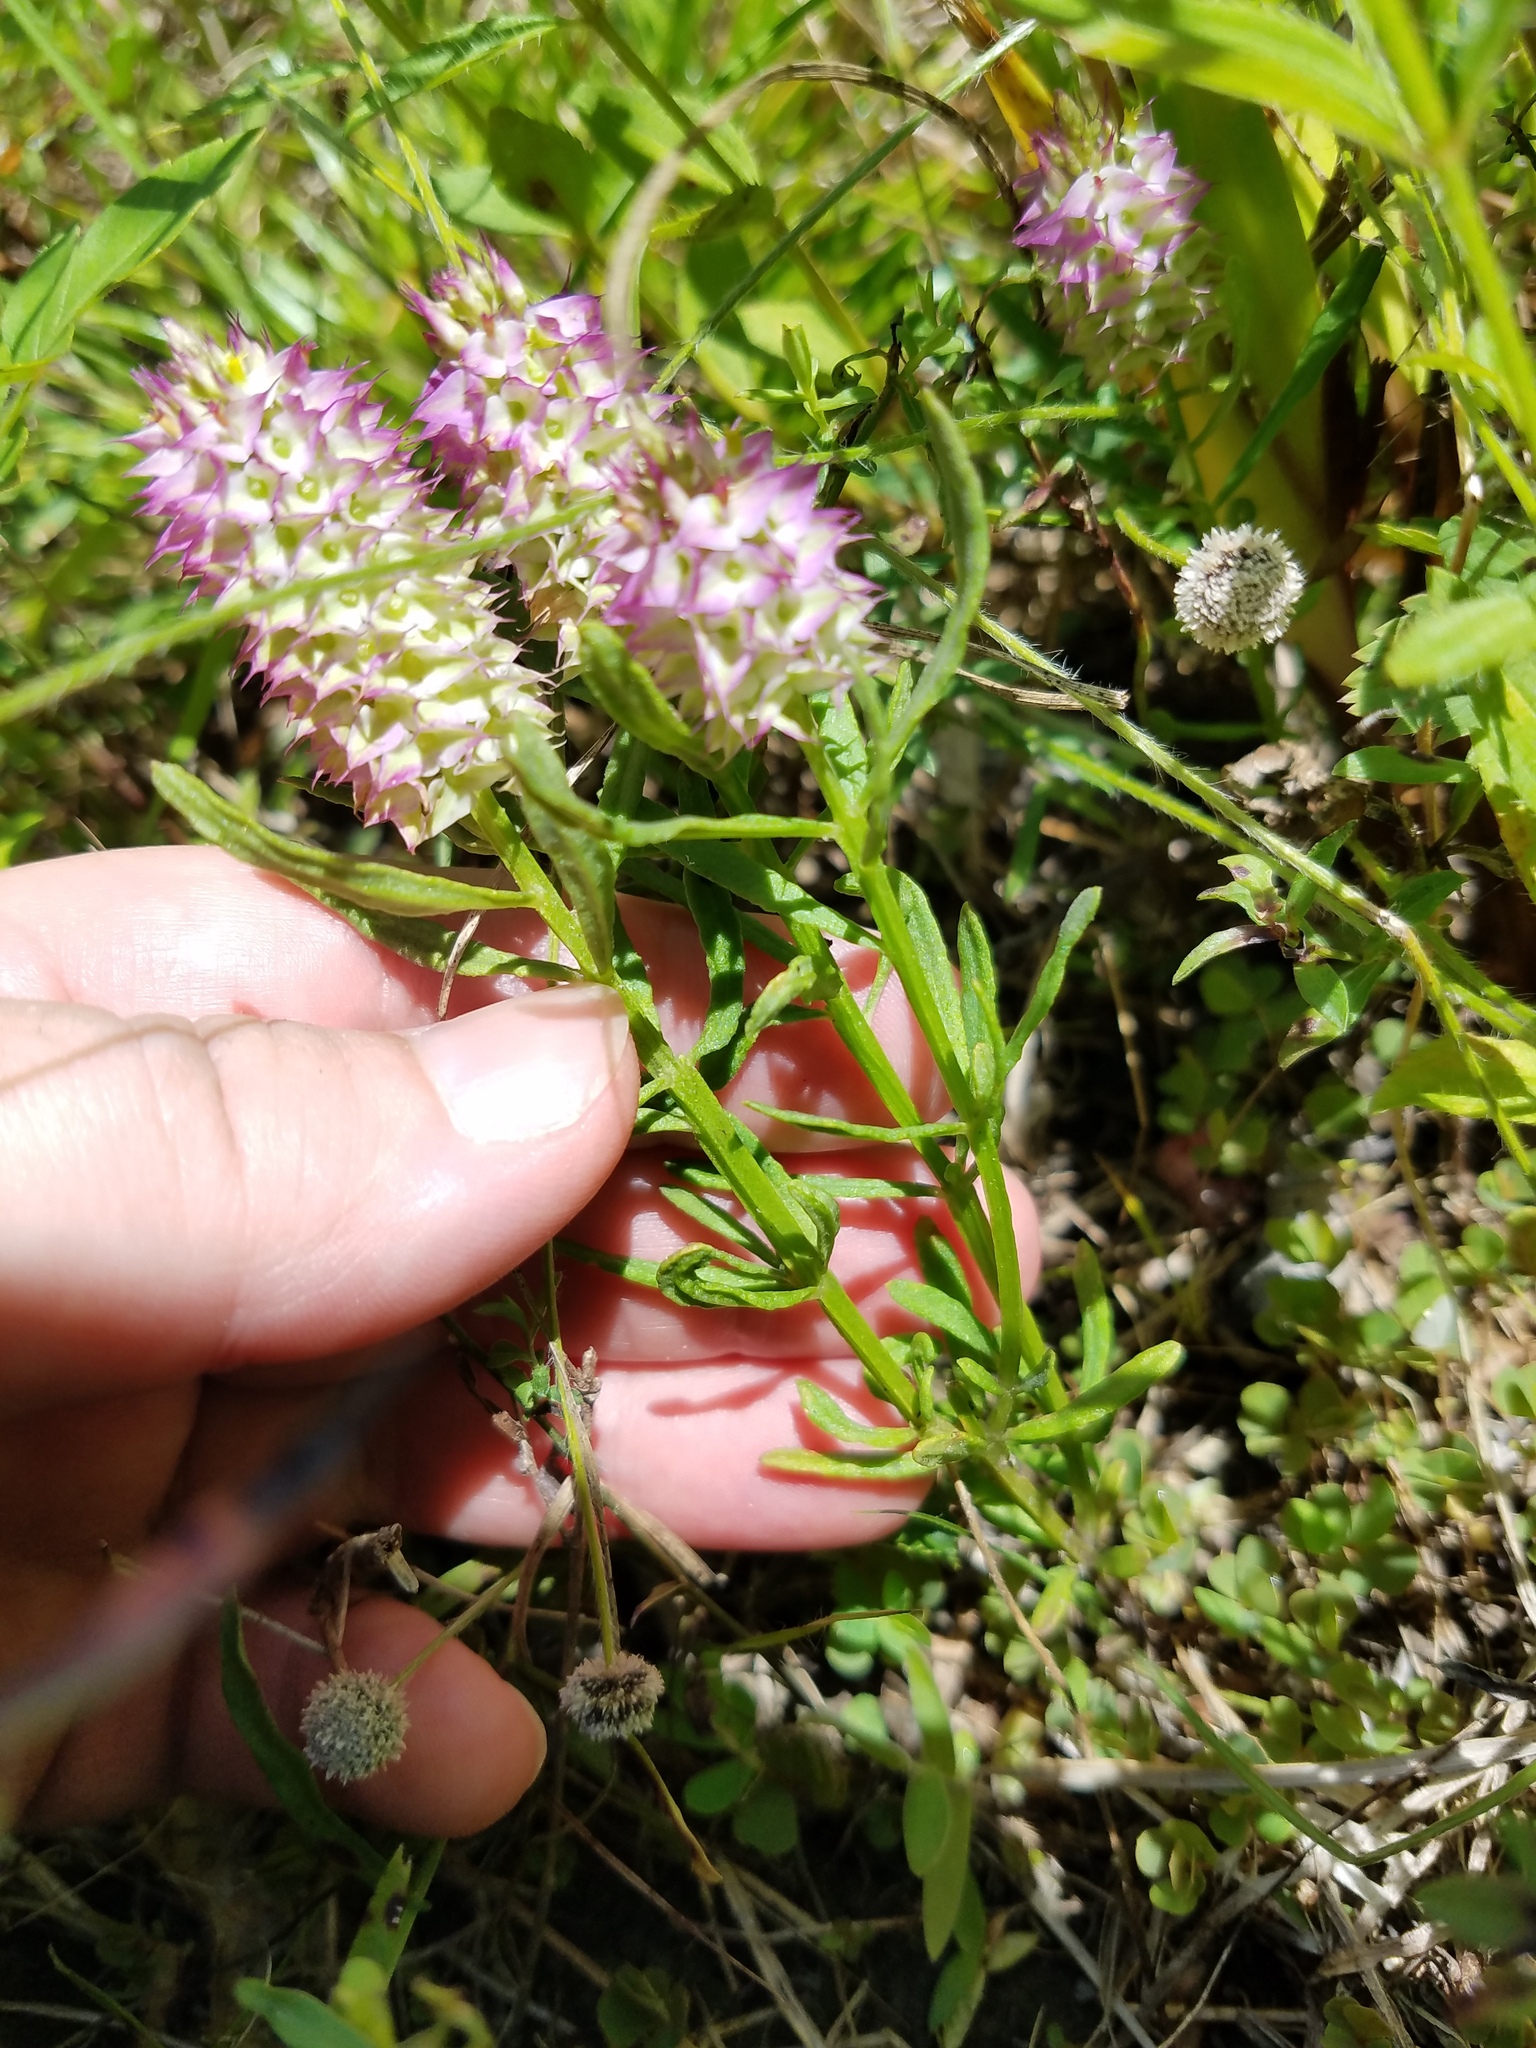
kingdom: Plantae
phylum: Tracheophyta
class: Magnoliopsida
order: Fabales
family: Polygalaceae
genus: Polygala
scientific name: Polygala cruciata
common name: Drumheads
